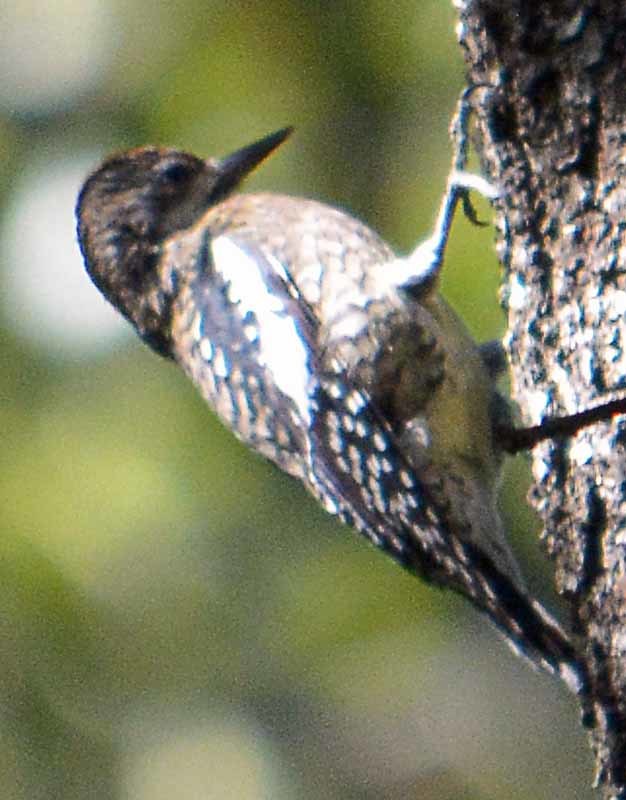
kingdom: Animalia
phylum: Chordata
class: Aves
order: Piciformes
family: Picidae
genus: Sphyrapicus
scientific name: Sphyrapicus varius
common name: Yellow-bellied sapsucker
